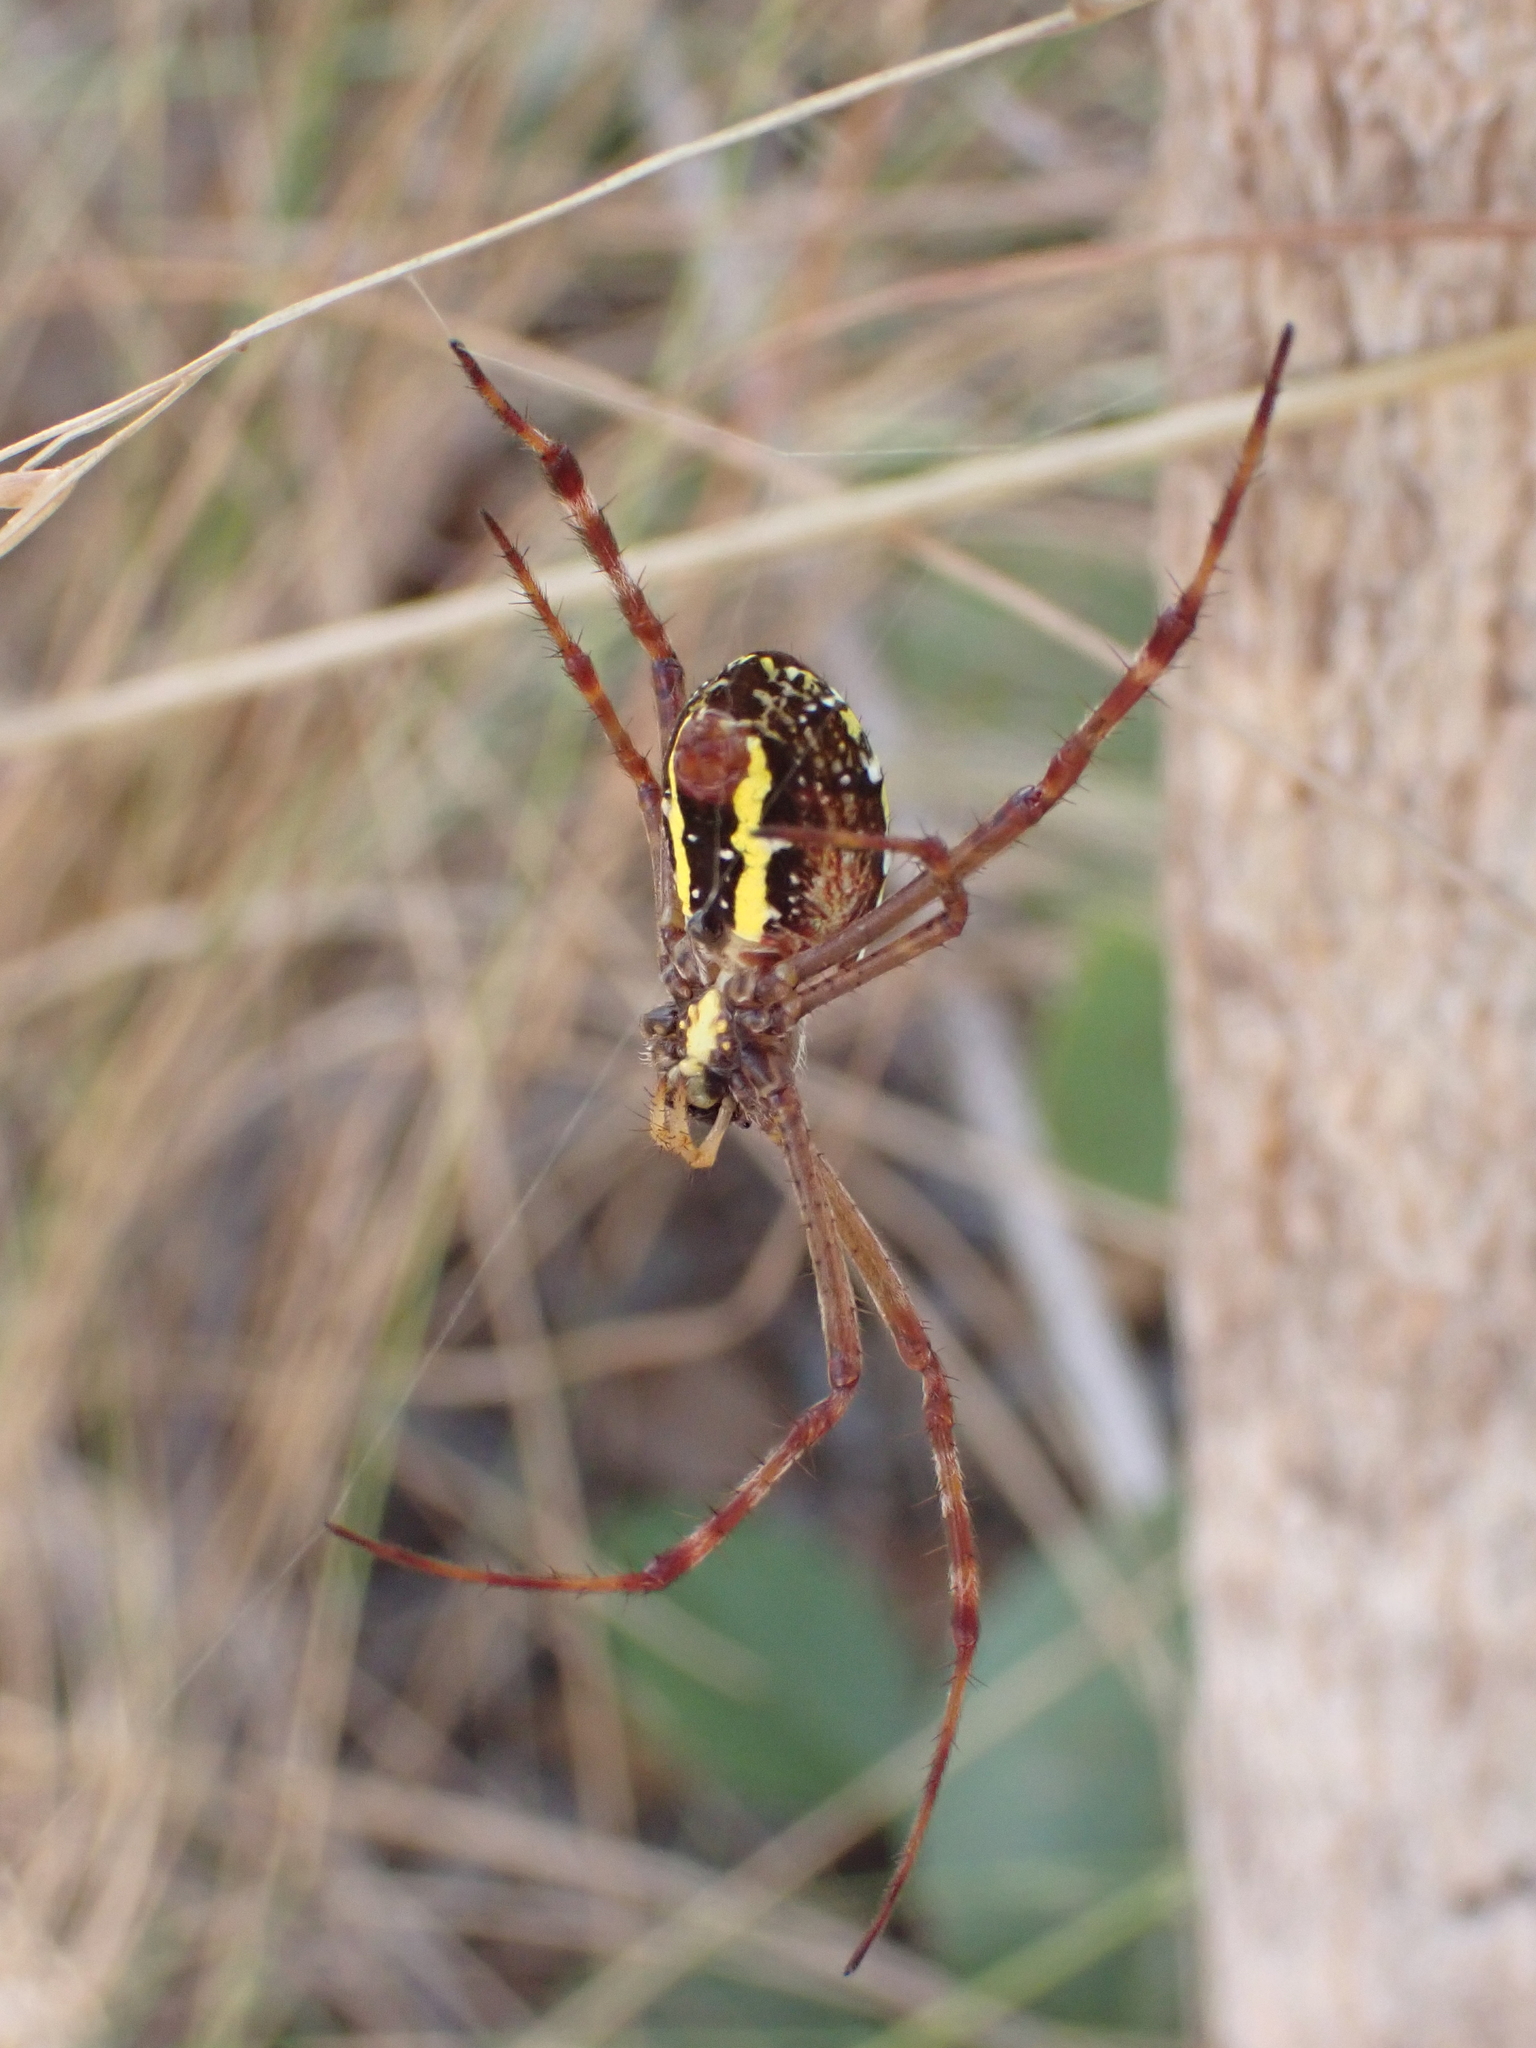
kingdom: Animalia
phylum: Arthropoda
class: Arachnida
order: Araneae
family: Araneidae
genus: Argiope
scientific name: Argiope picta
